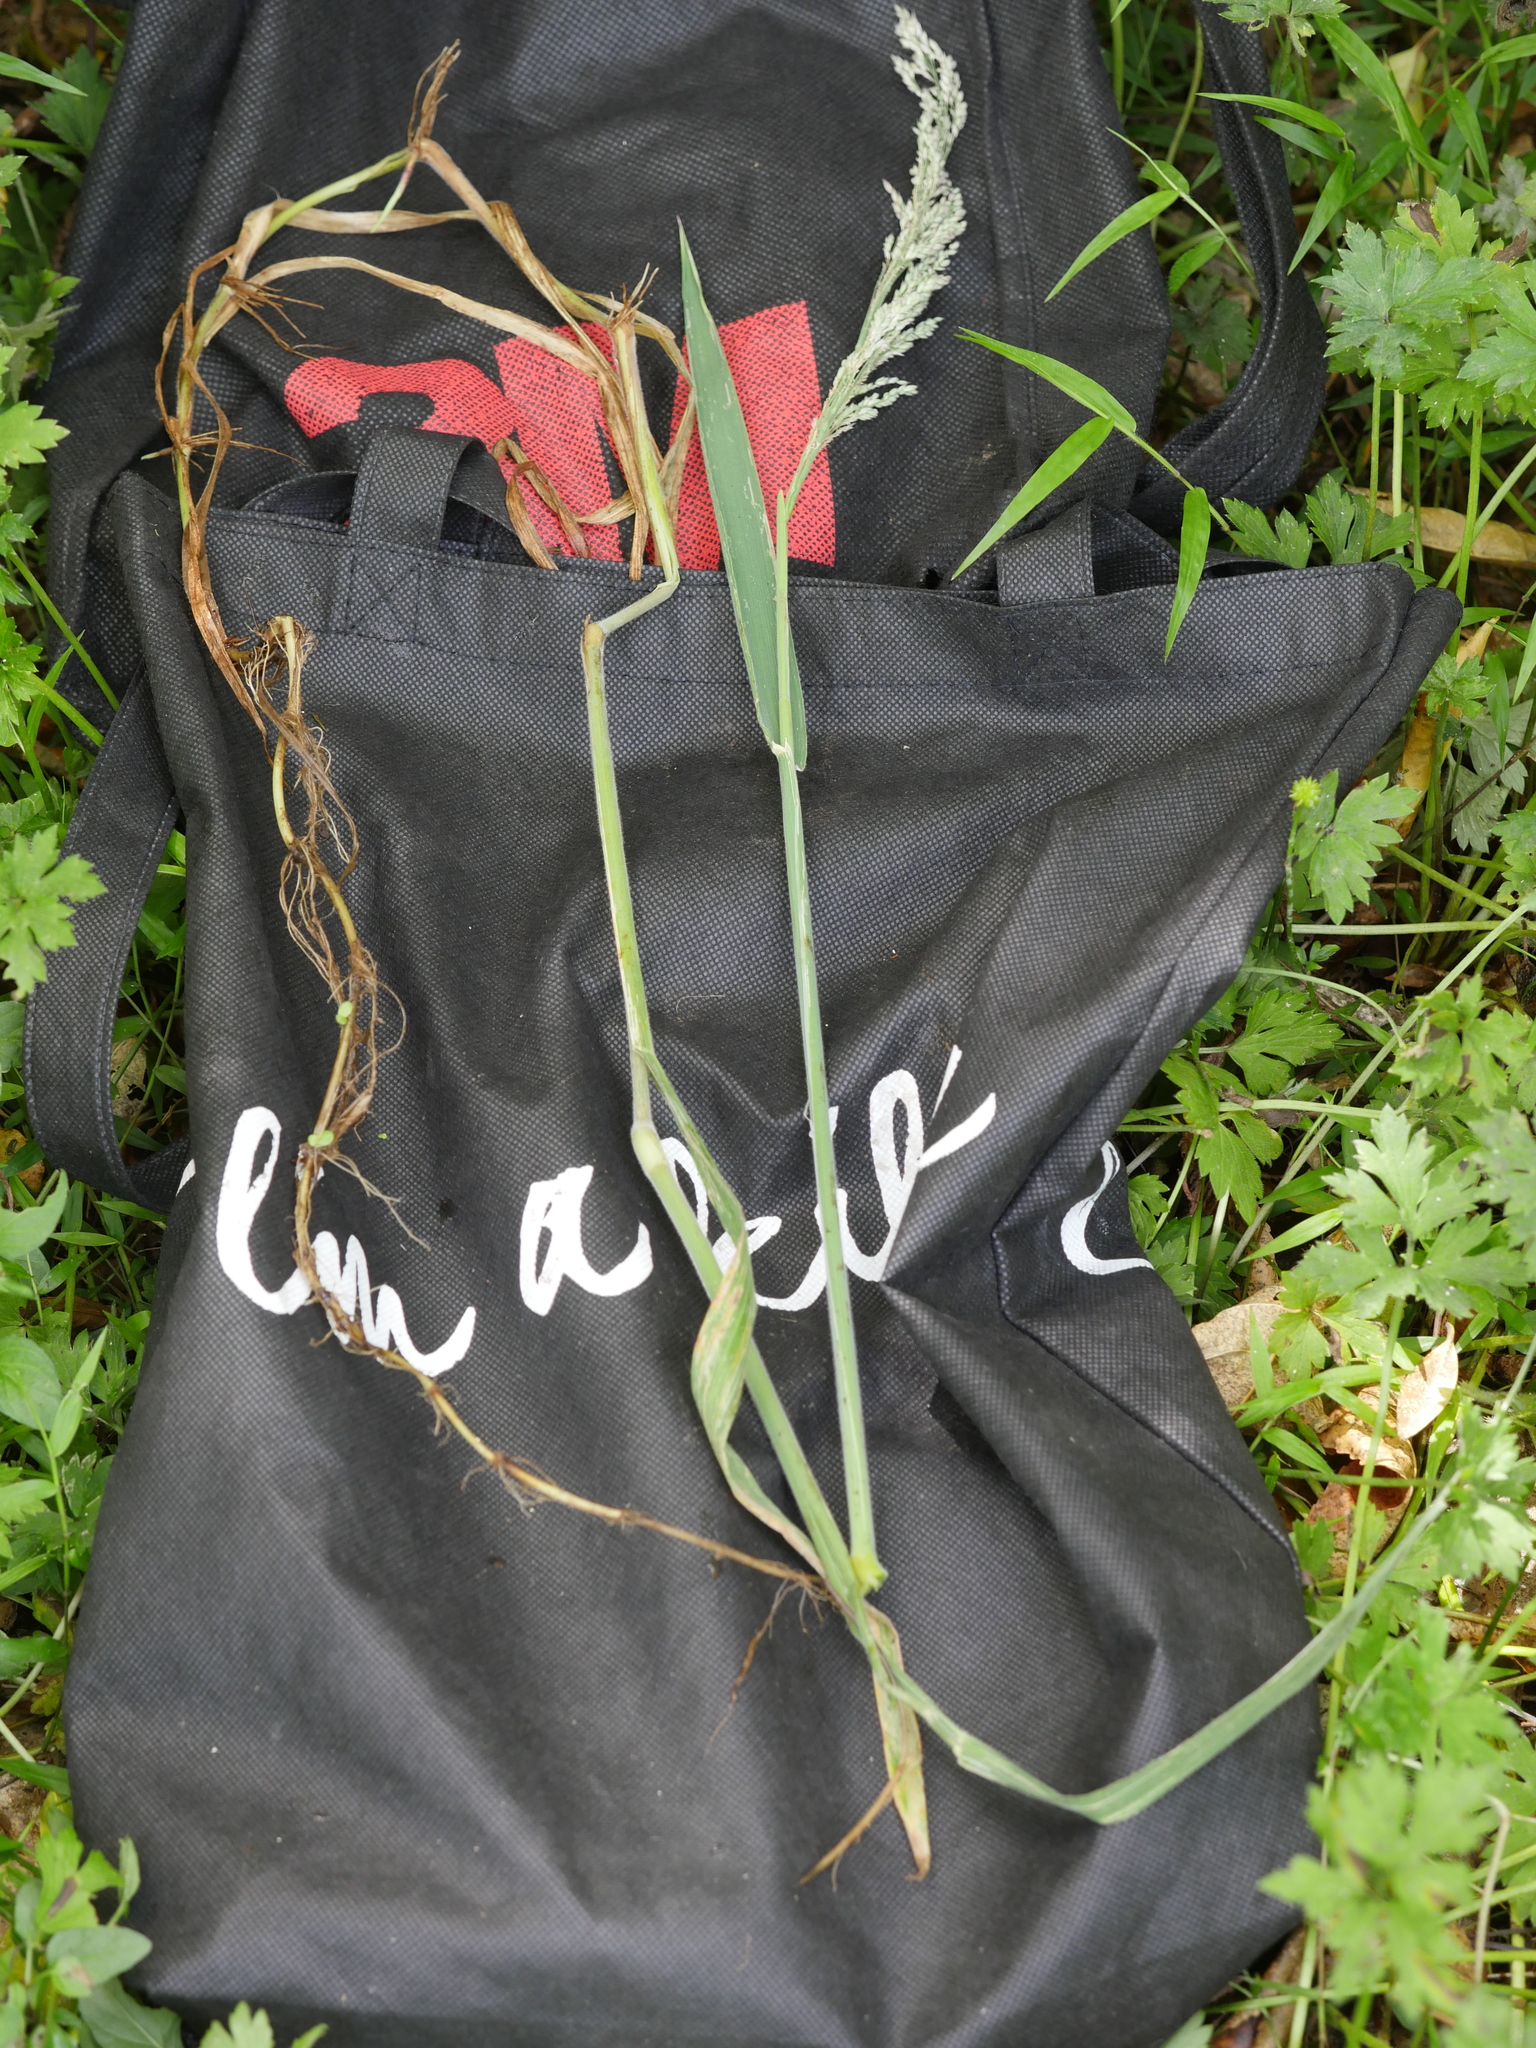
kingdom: Plantae
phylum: Tracheophyta
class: Liliopsida
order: Poales
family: Poaceae
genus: Holcus
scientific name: Holcus lanatus
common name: Yorkshire-fog
